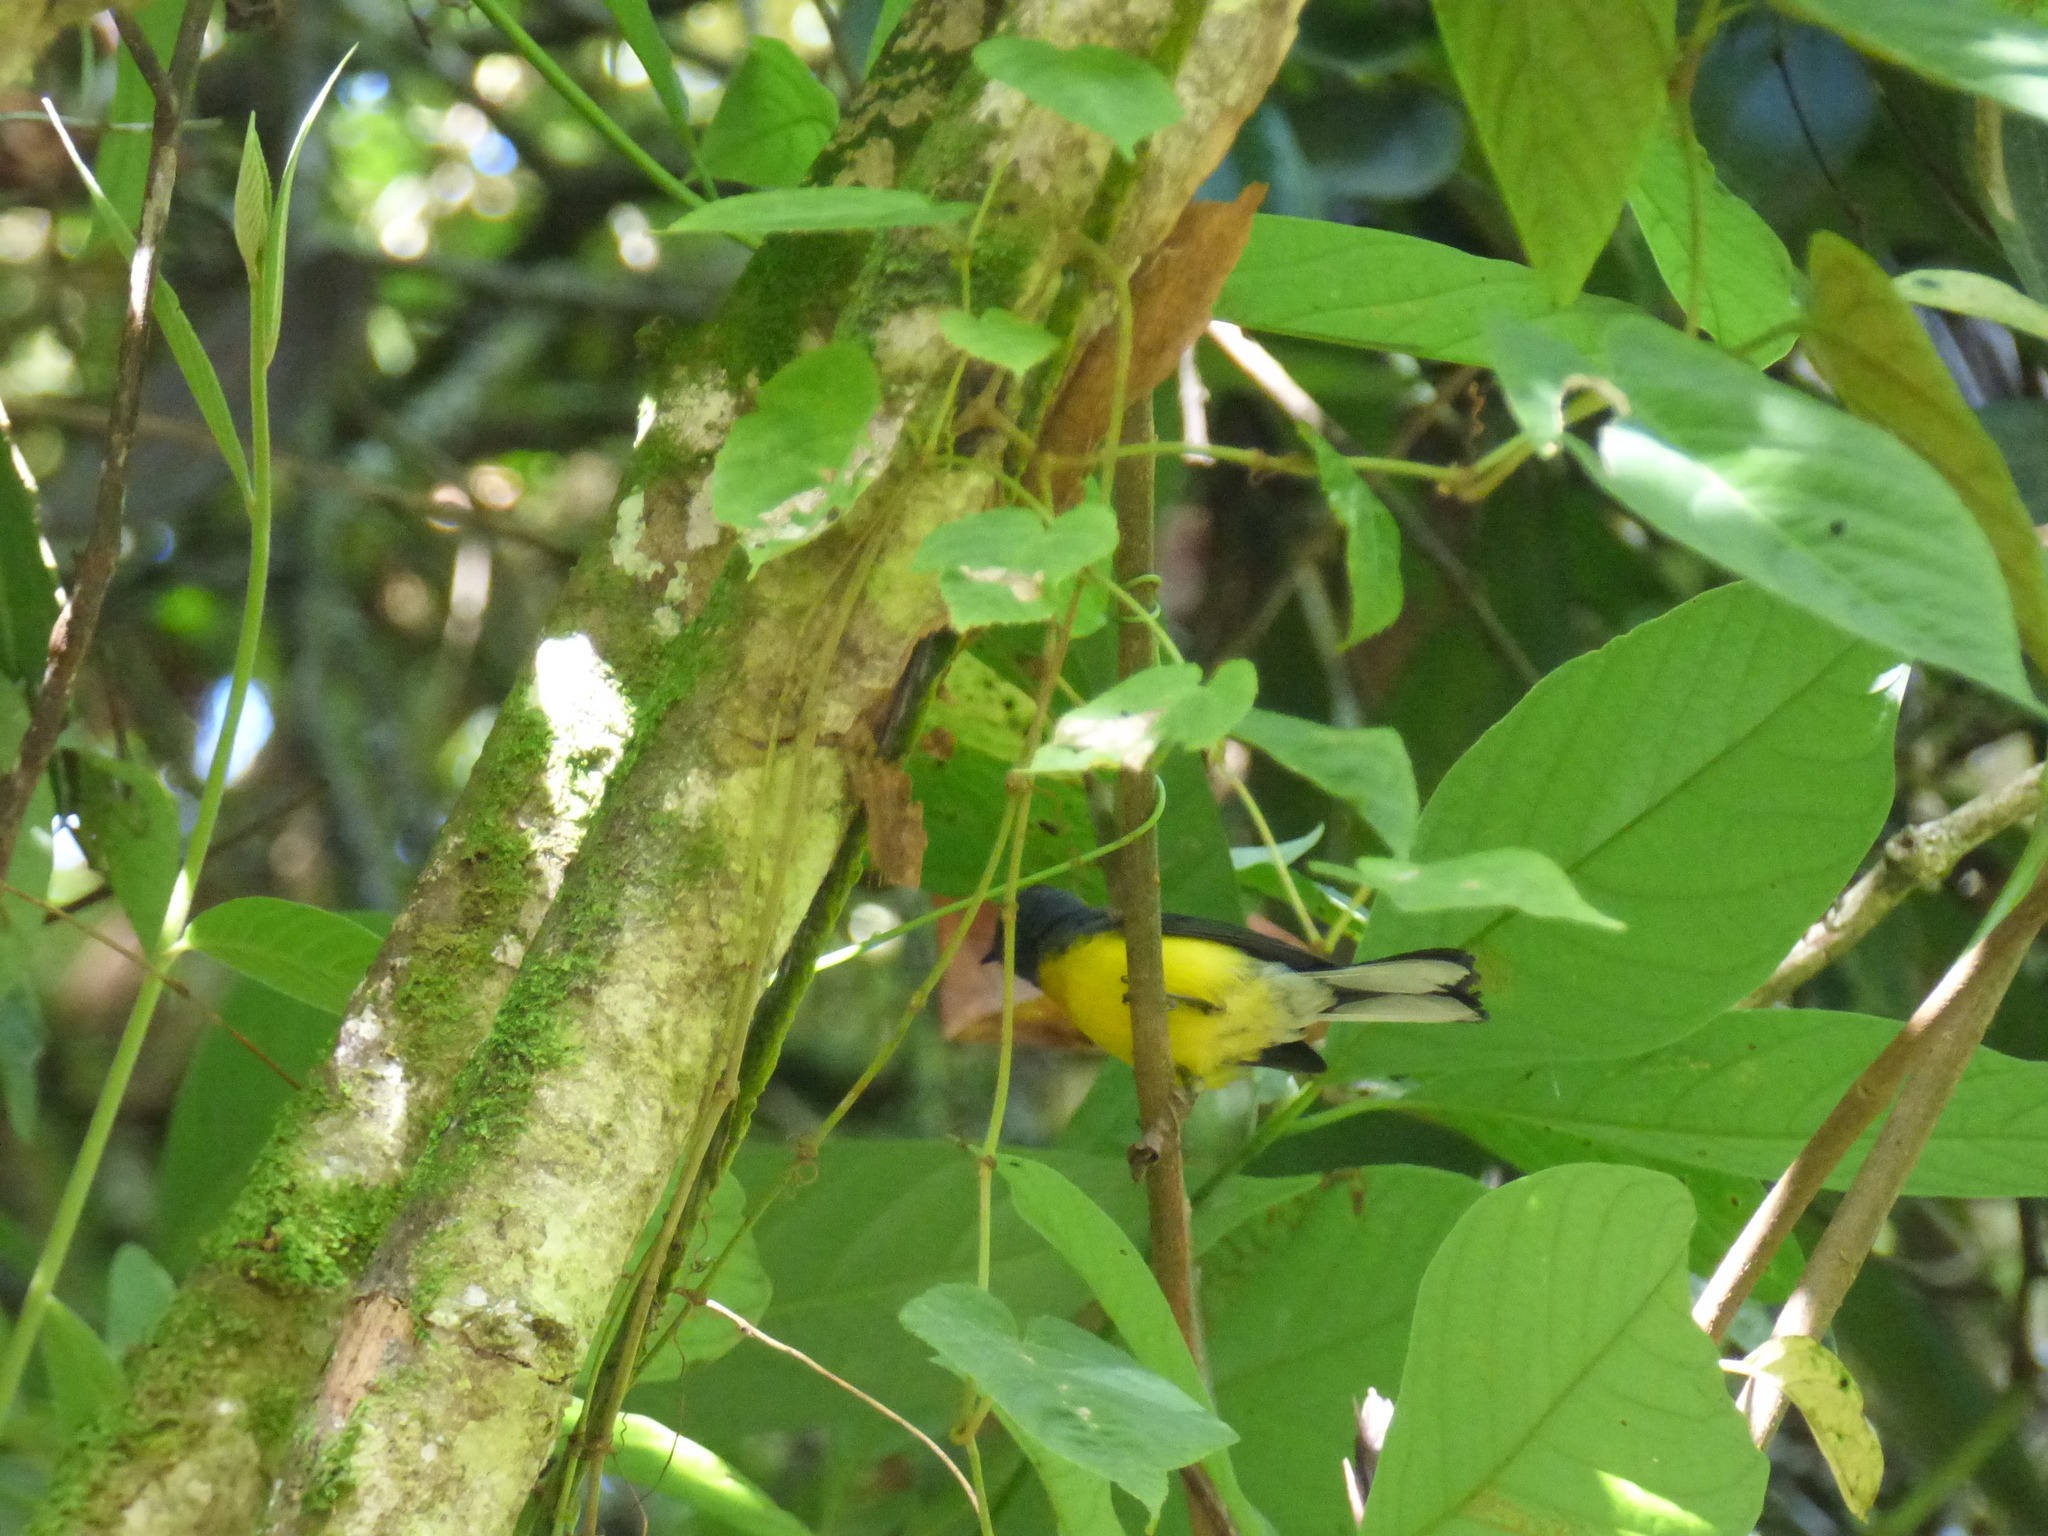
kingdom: Animalia
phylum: Chordata
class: Aves
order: Passeriformes
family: Parulidae
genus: Myioborus
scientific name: Myioborus miniatus
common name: Slate-throated redstart
